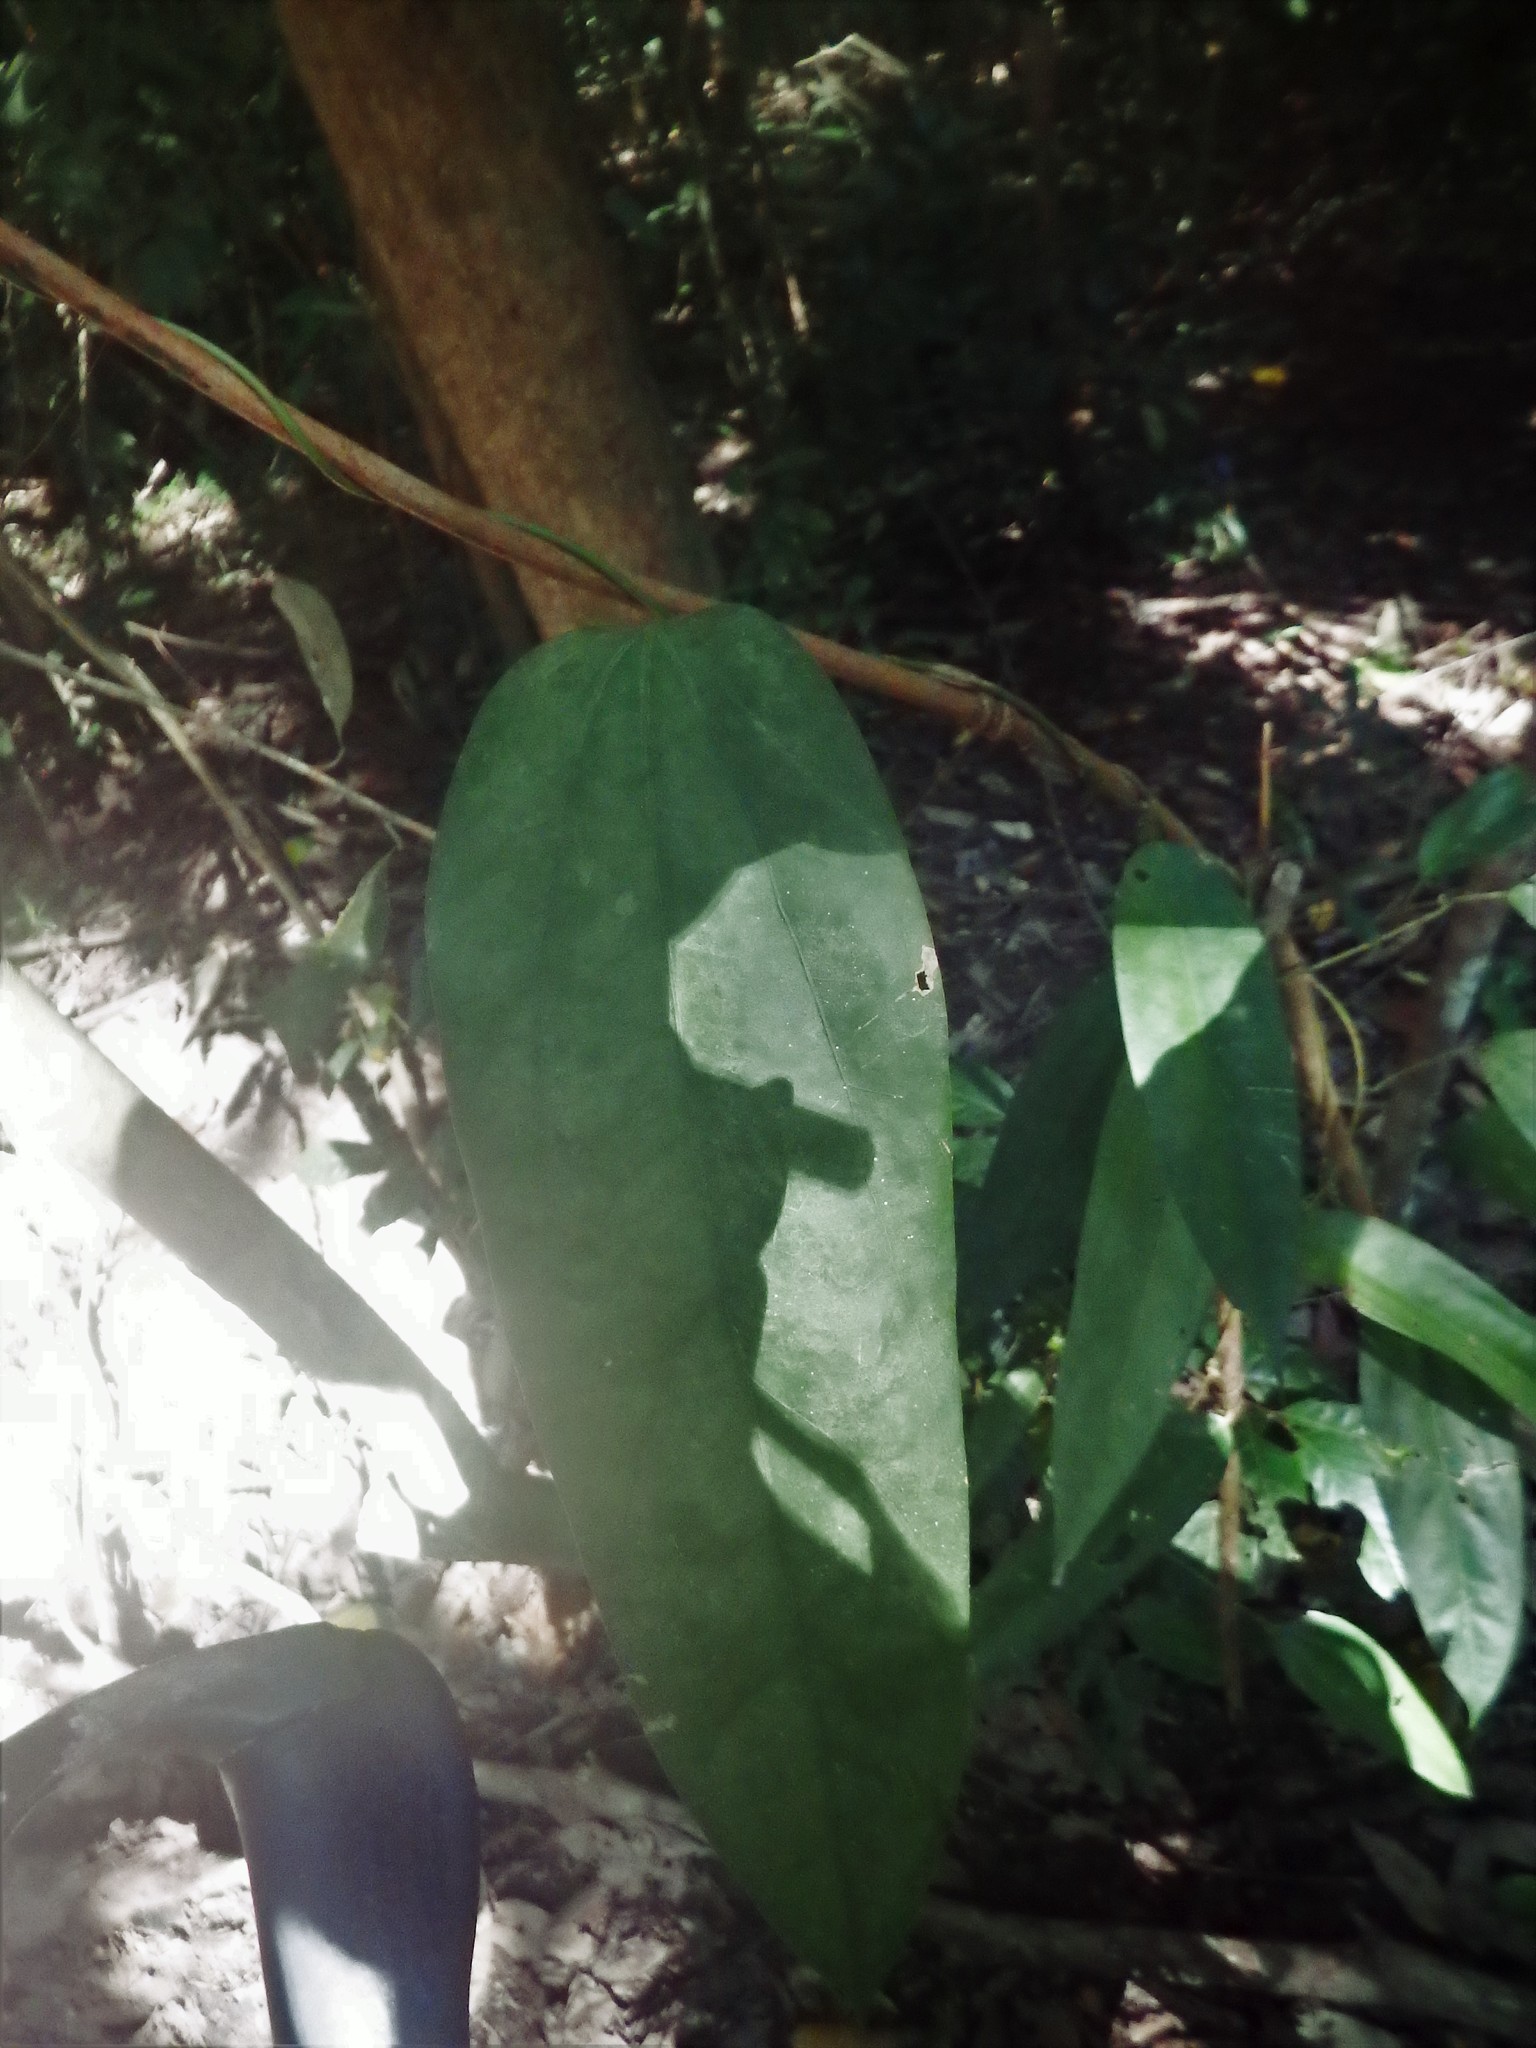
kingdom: Plantae
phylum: Tracheophyta
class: Magnoliopsida
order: Ranunculales
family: Menispermaceae
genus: Fibraurea
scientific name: Fibraurea tinctoria
